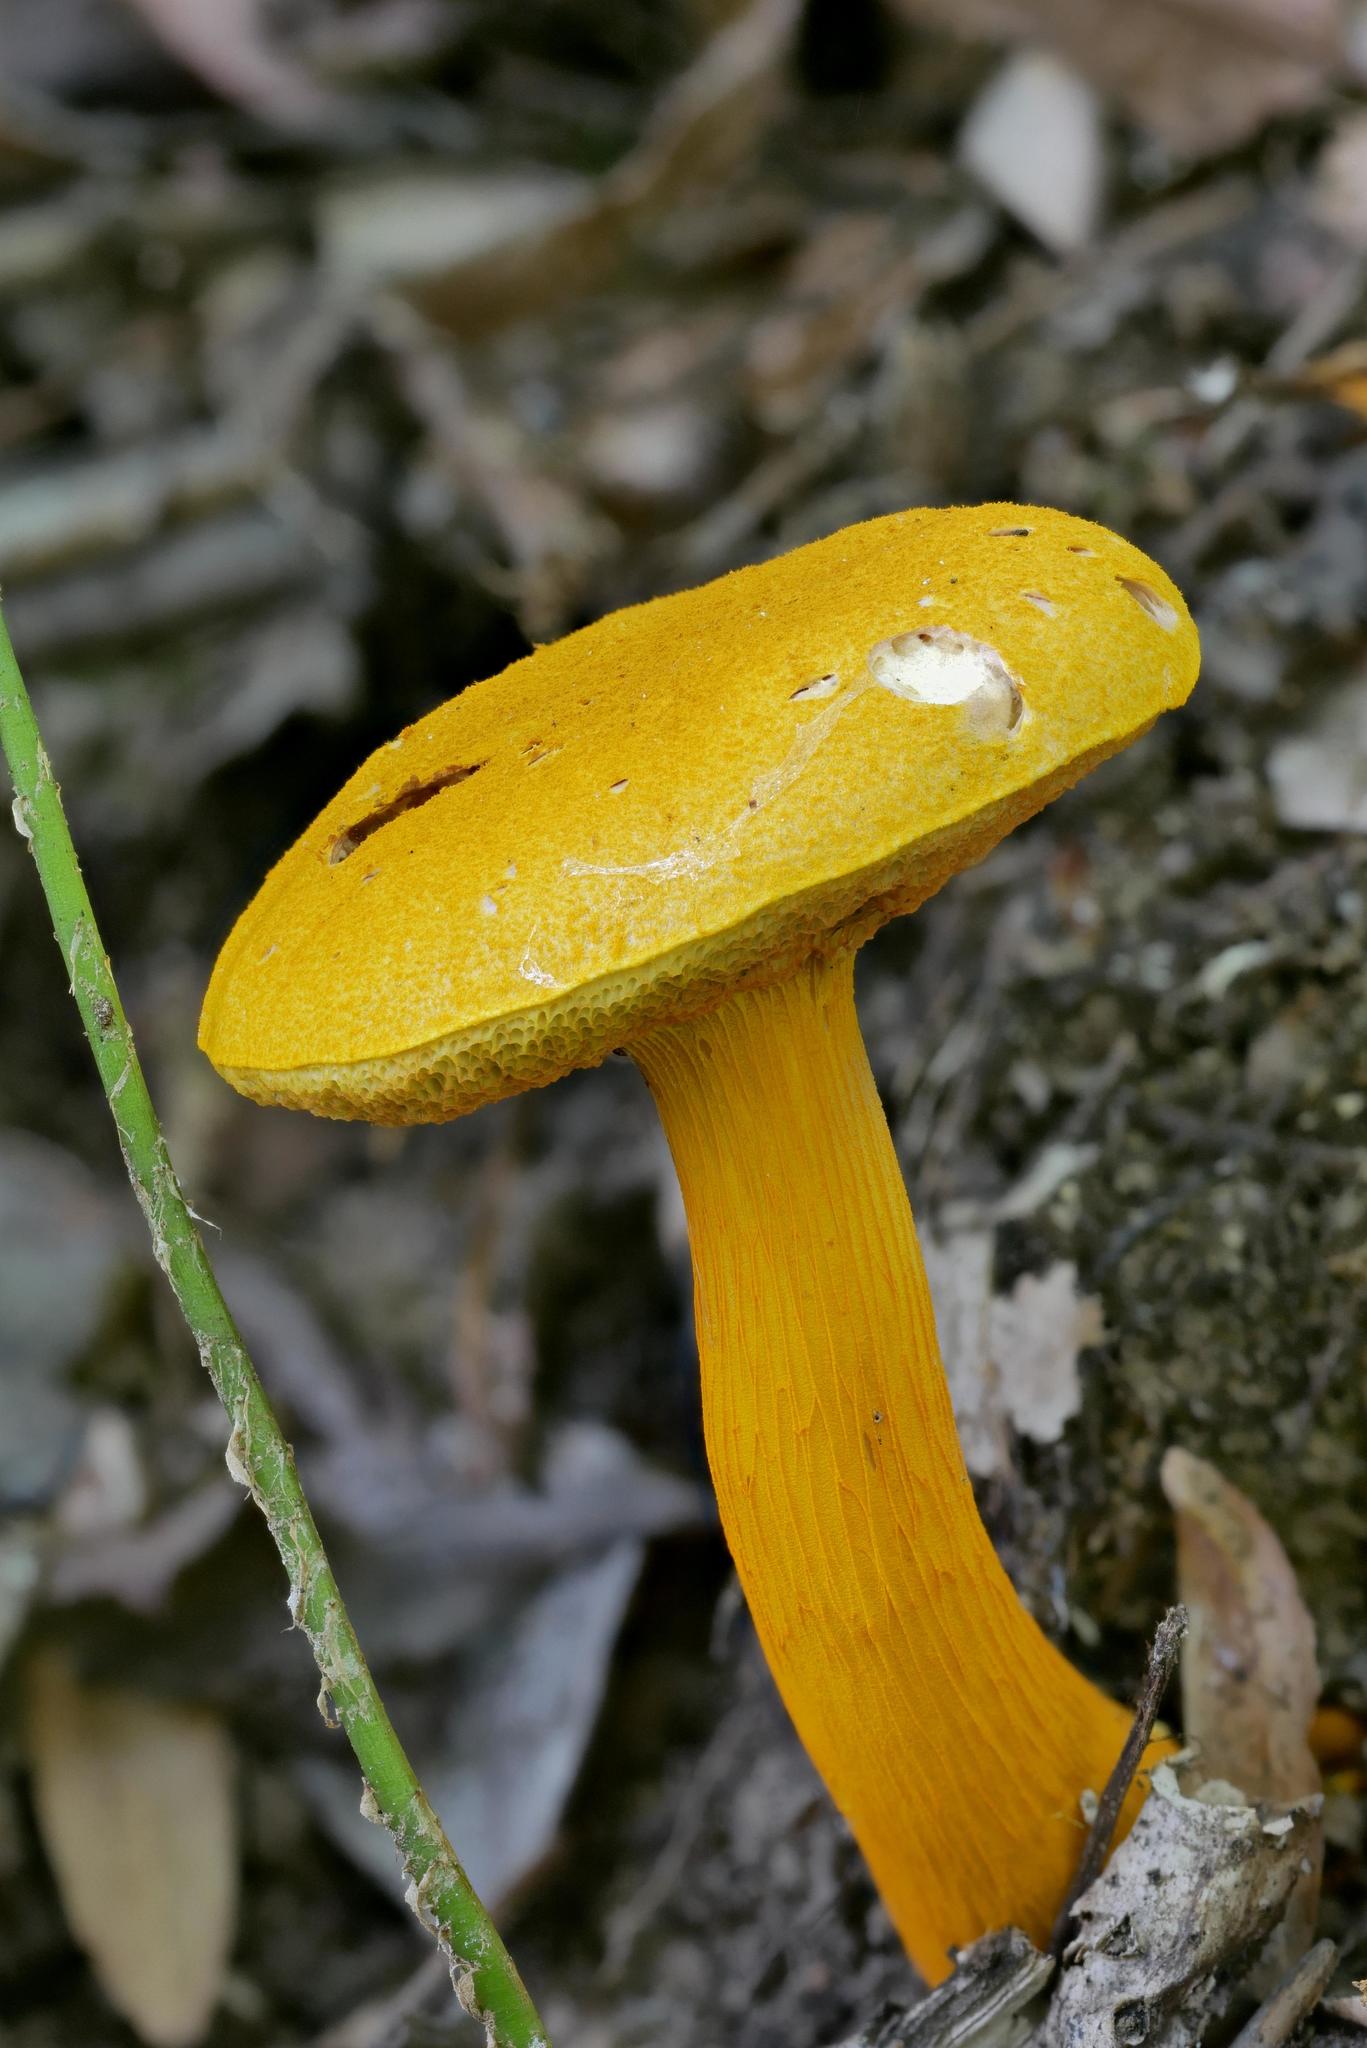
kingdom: Fungi
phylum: Basidiomycota
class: Agaricomycetes
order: Boletales
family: Boletaceae
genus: Aureoboletus
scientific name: Aureoboletus auriflammeus
